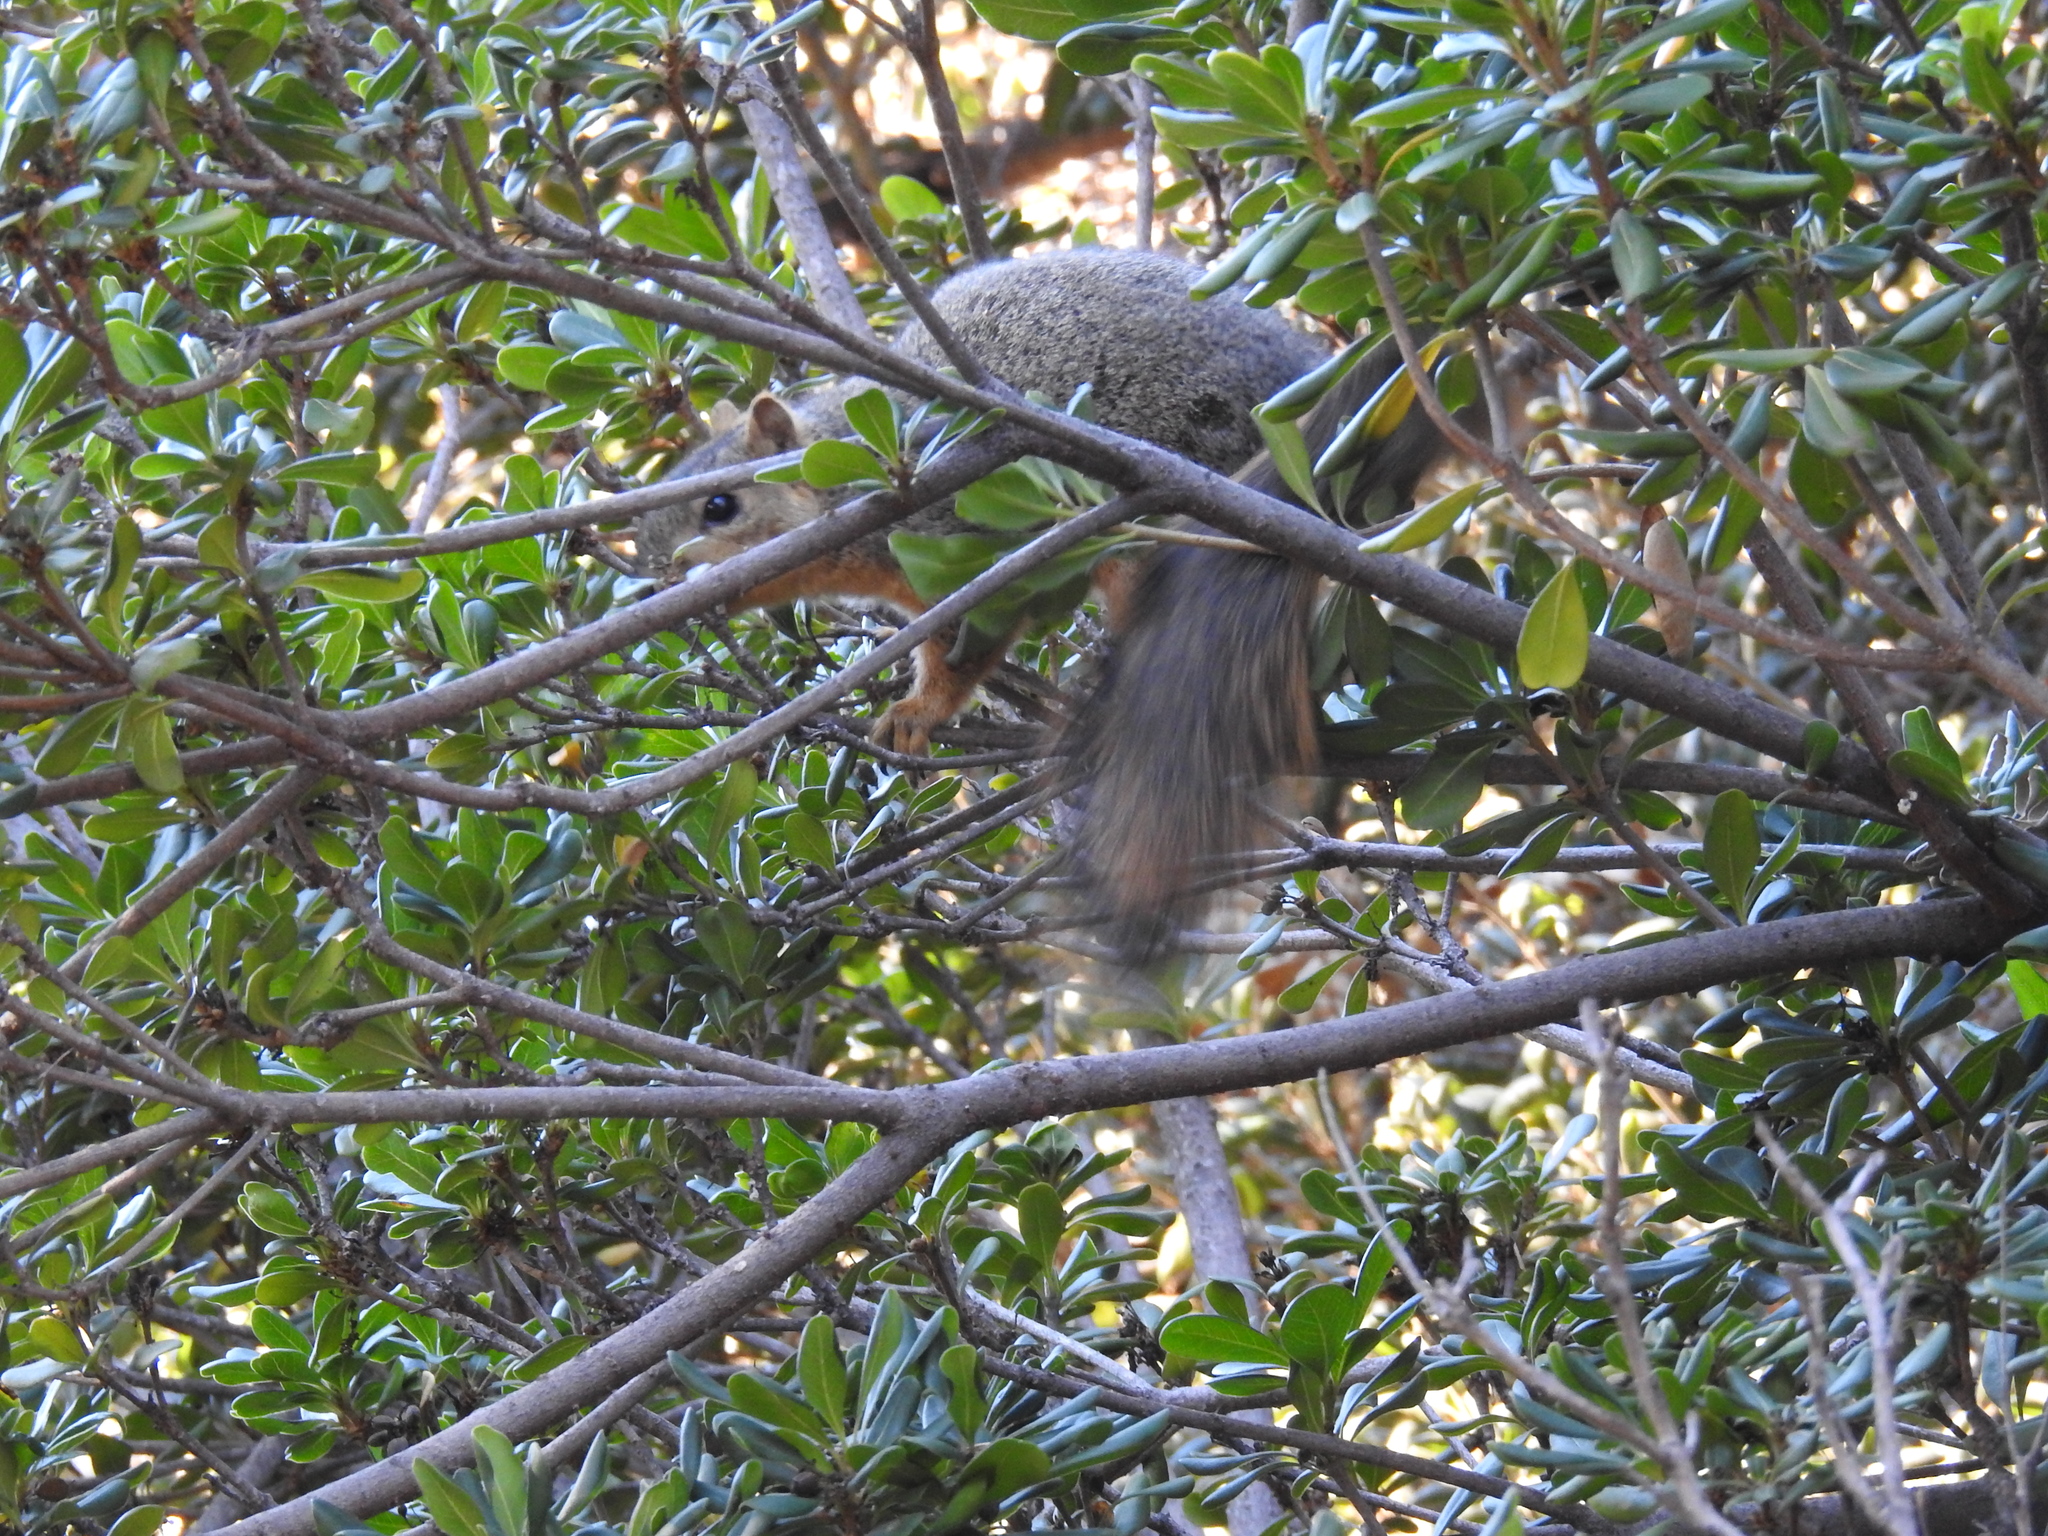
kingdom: Animalia
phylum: Chordata
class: Mammalia
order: Rodentia
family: Sciuridae
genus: Sciurus
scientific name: Sciurus niger
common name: Fox squirrel
